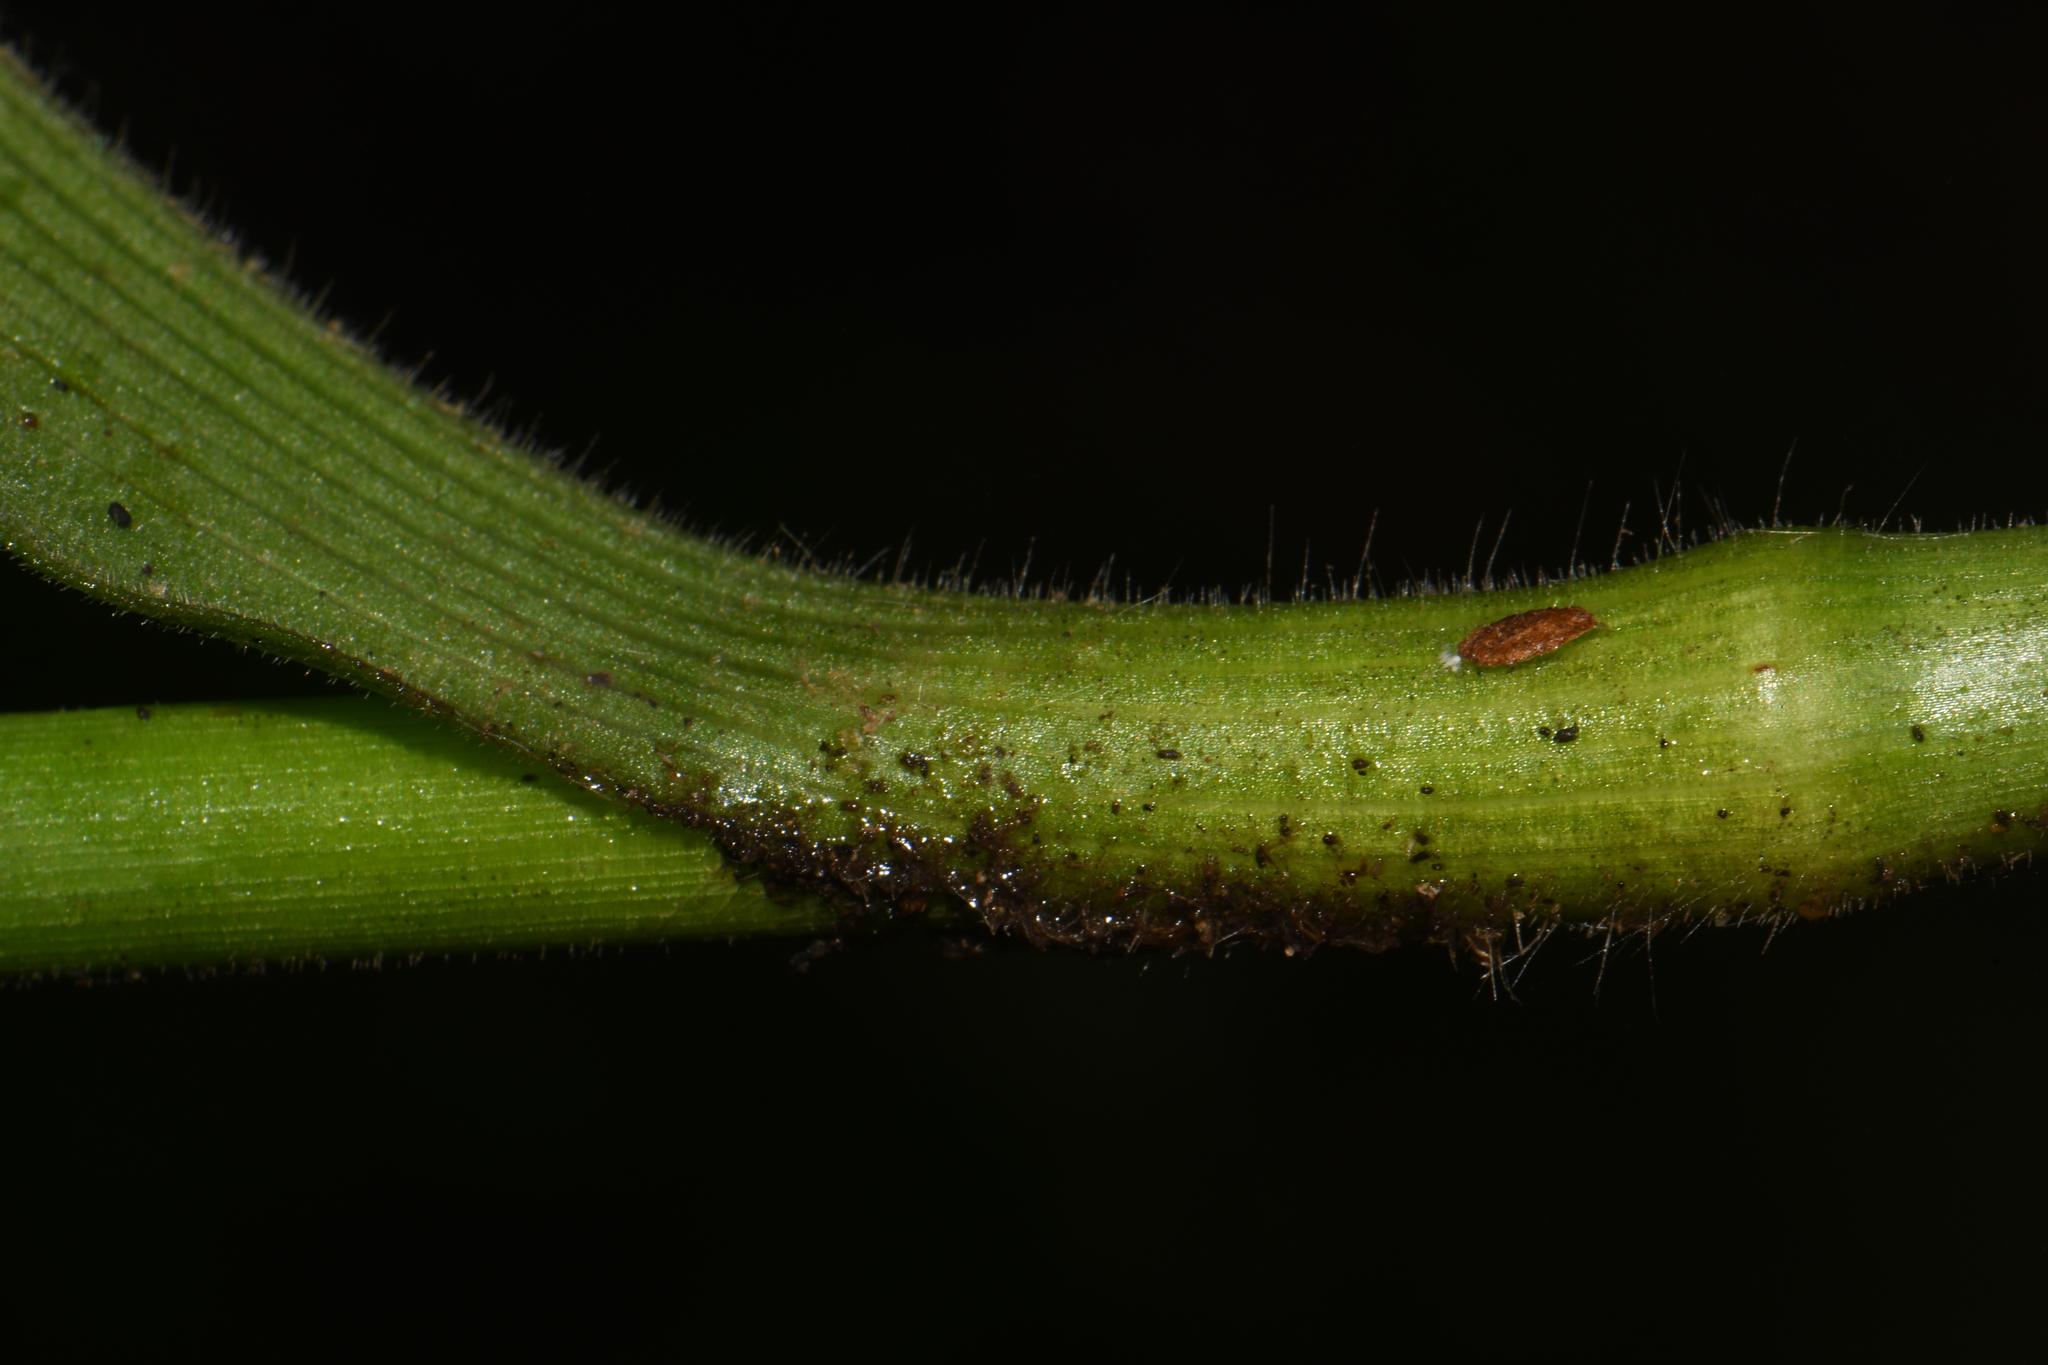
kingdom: Plantae
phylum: Tracheophyta
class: Liliopsida
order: Commelinales
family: Commelinaceae
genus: Tradescantia
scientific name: Tradescantia subaspera
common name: Wide-leaf spiderwort
